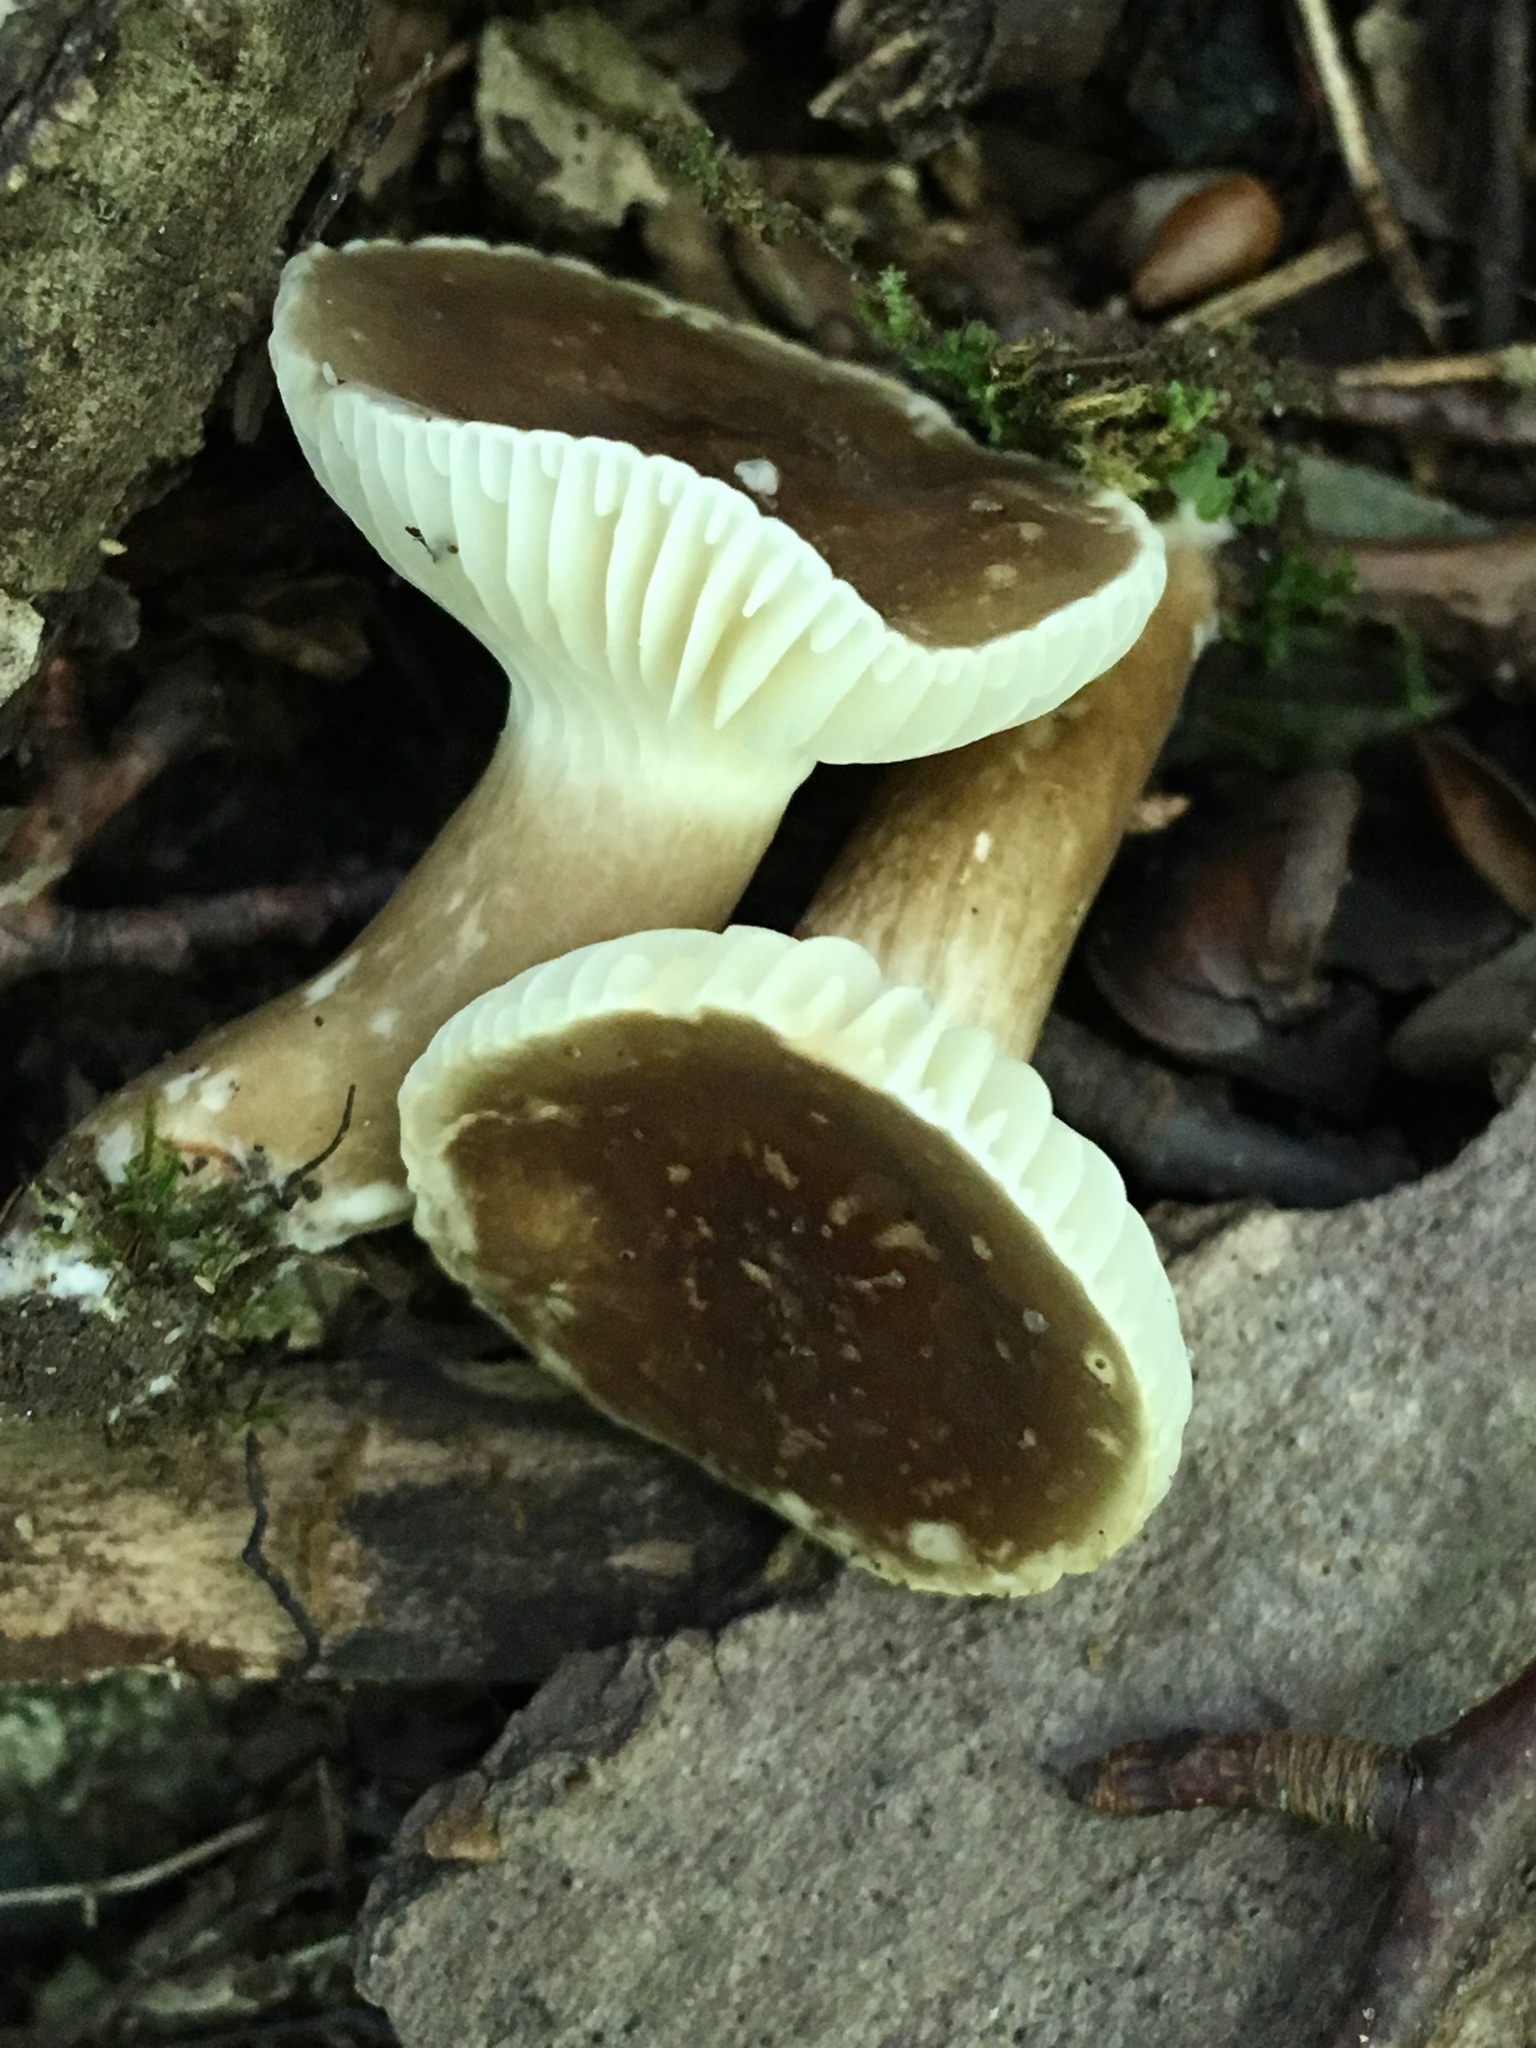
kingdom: Fungi
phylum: Basidiomycota
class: Agaricomycetes
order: Russulales
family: Russulaceae
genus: Lactarius
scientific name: Lactarius gerardii
